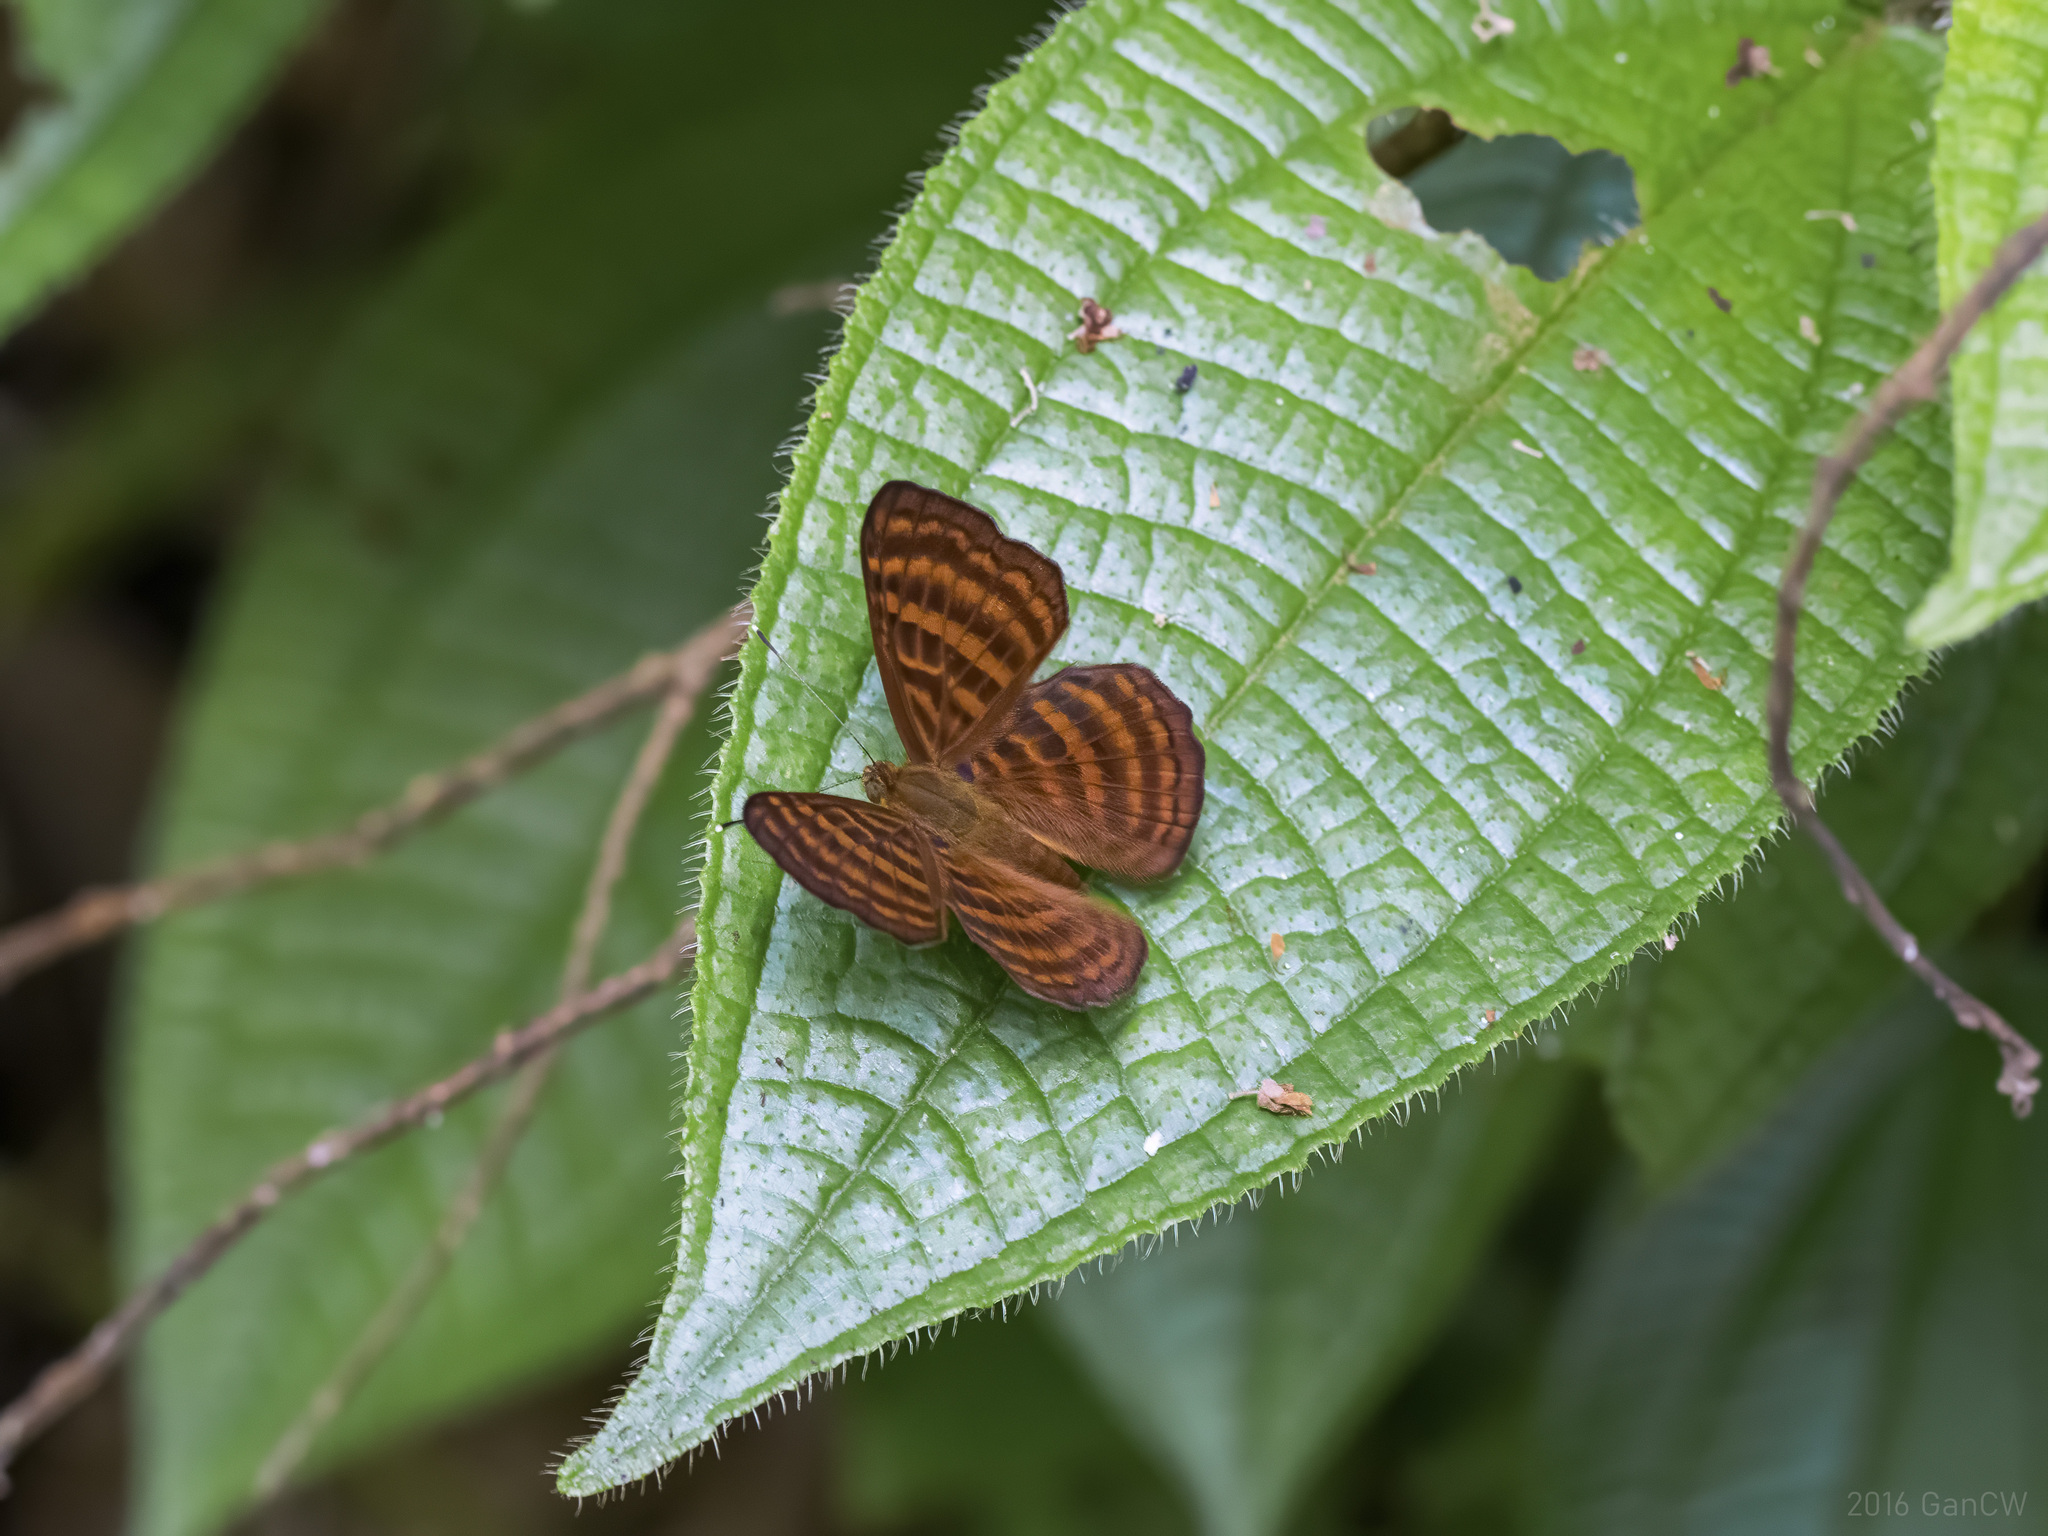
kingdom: Animalia
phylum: Arthropoda
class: Insecta
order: Lepidoptera
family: Riodinidae
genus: Zemeros
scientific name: Zemeros emesoides
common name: Malay punchinello
